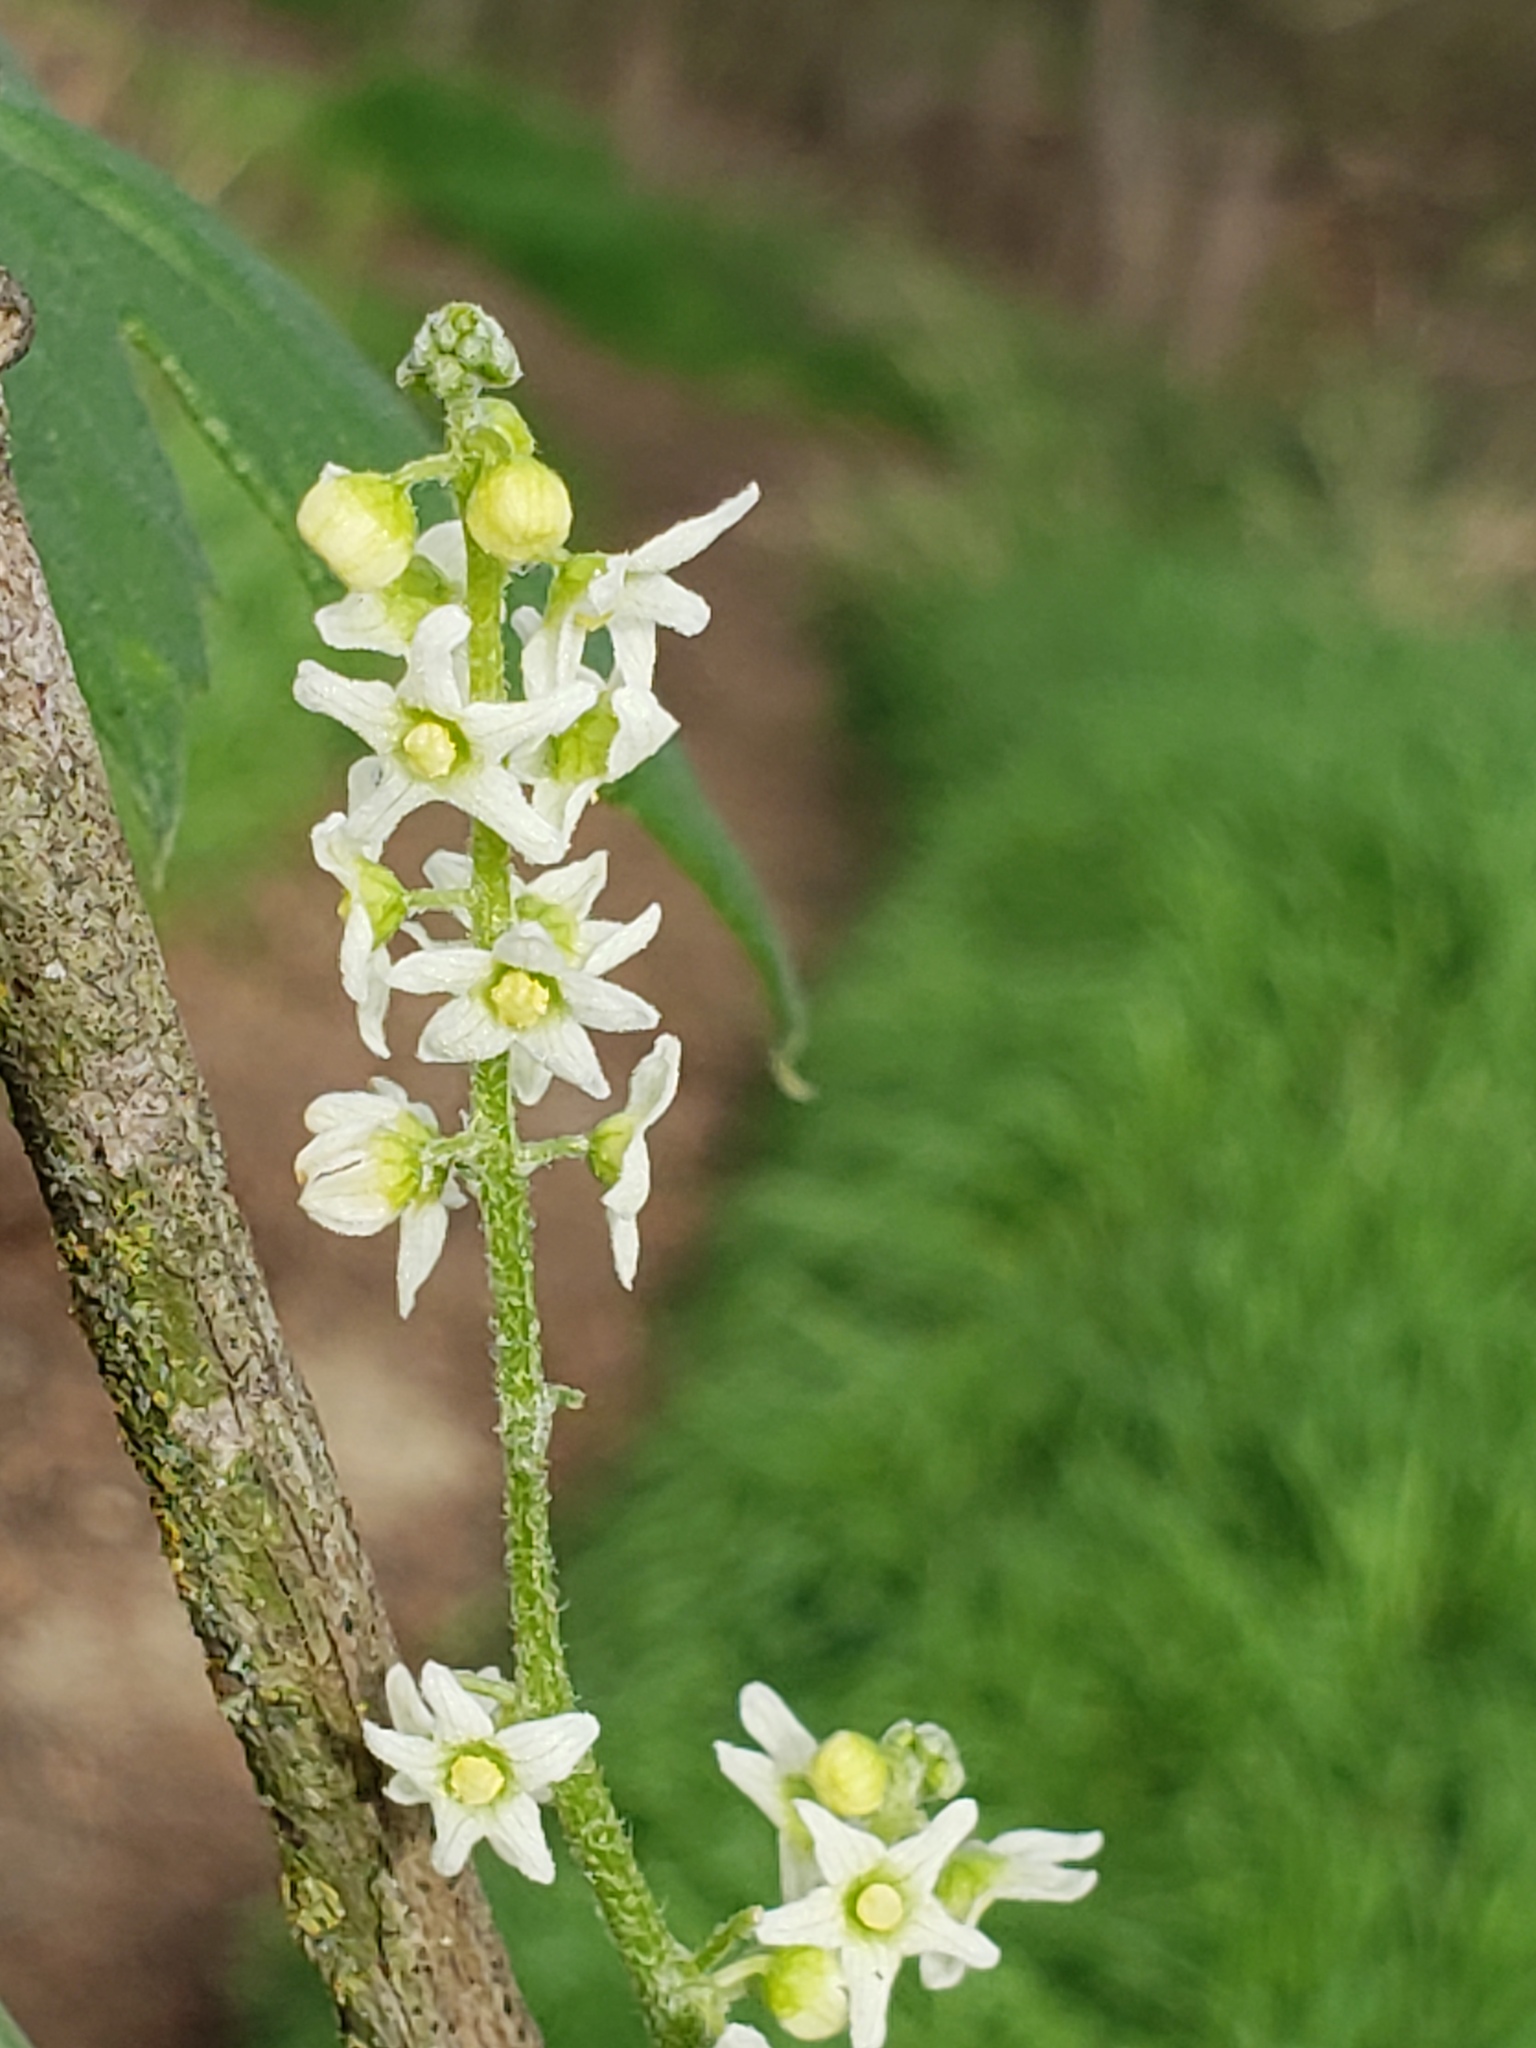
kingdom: Plantae
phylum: Tracheophyta
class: Magnoliopsida
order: Cucurbitales
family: Cucurbitaceae
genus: Marah
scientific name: Marah fabacea
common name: California manroot
